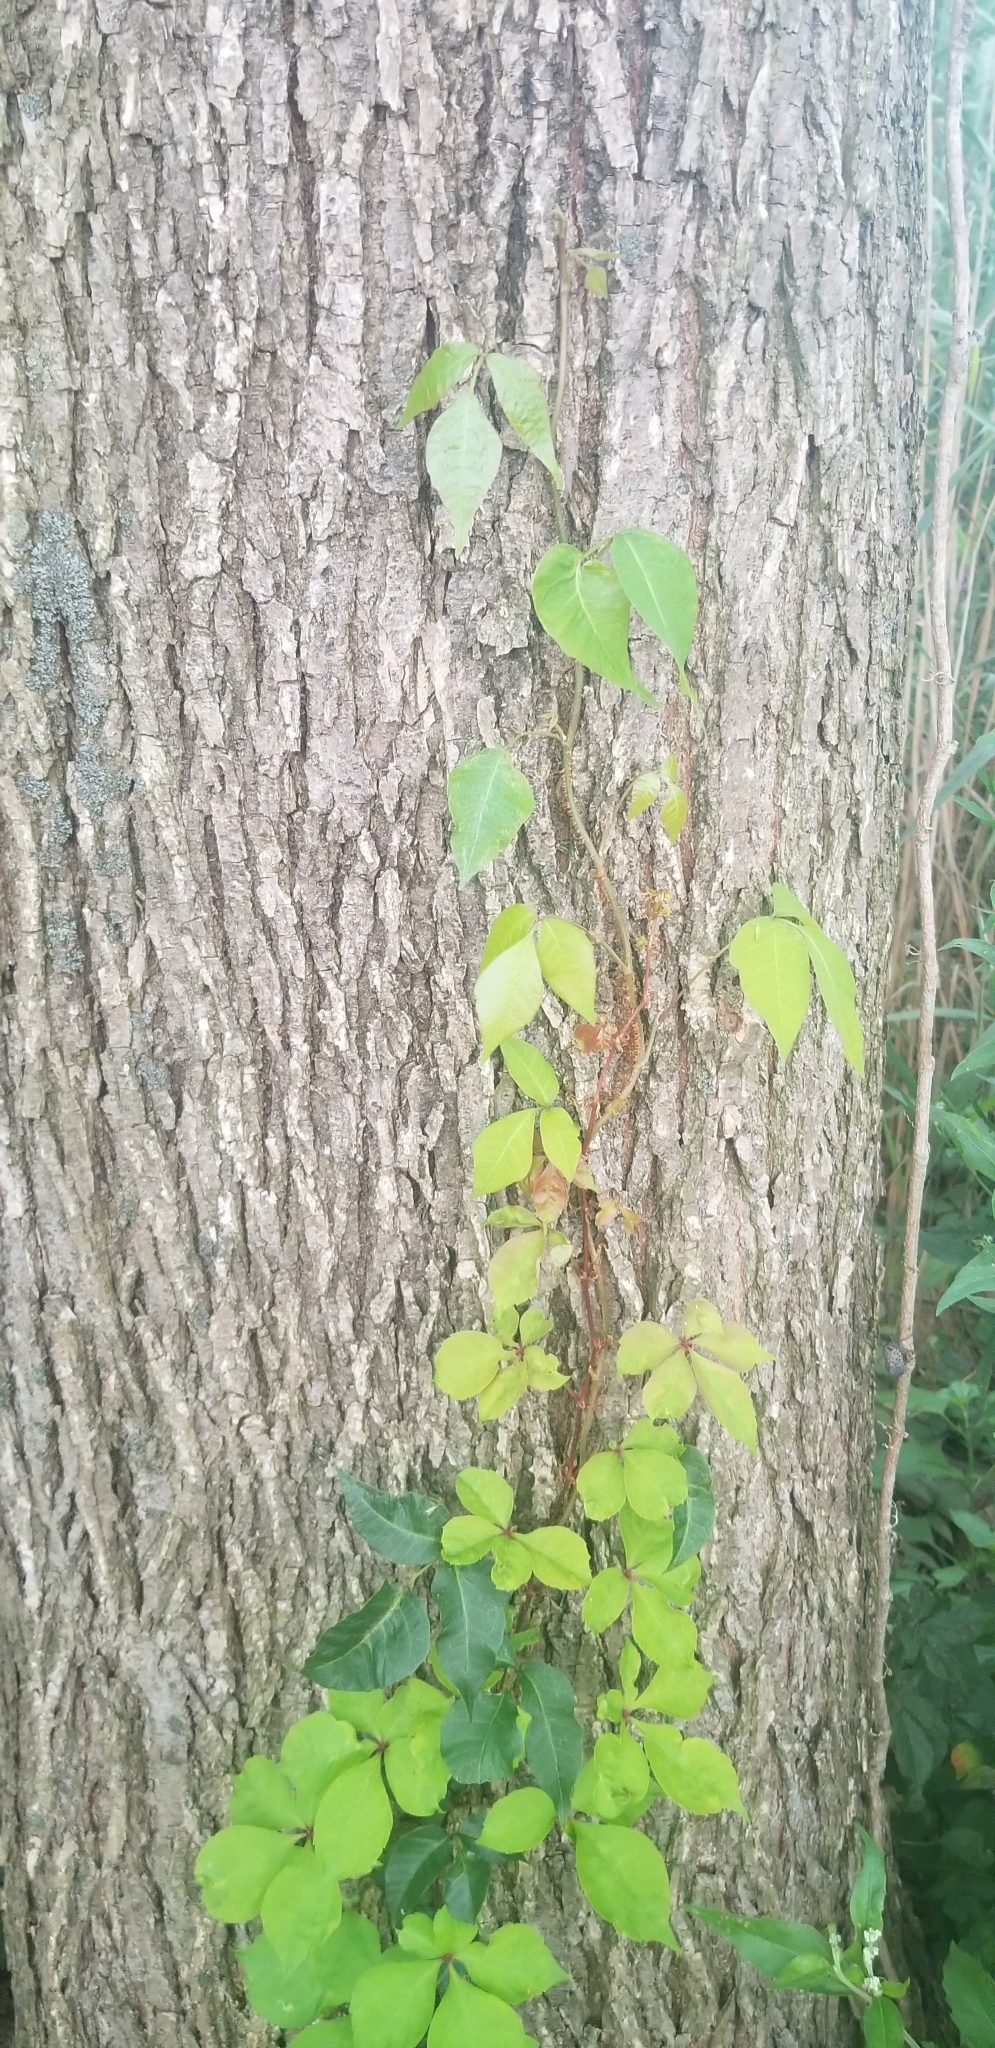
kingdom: Plantae
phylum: Tracheophyta
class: Magnoliopsida
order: Vitales
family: Vitaceae
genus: Parthenocissus
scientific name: Parthenocissus quinquefolia
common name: Virginia-creeper
